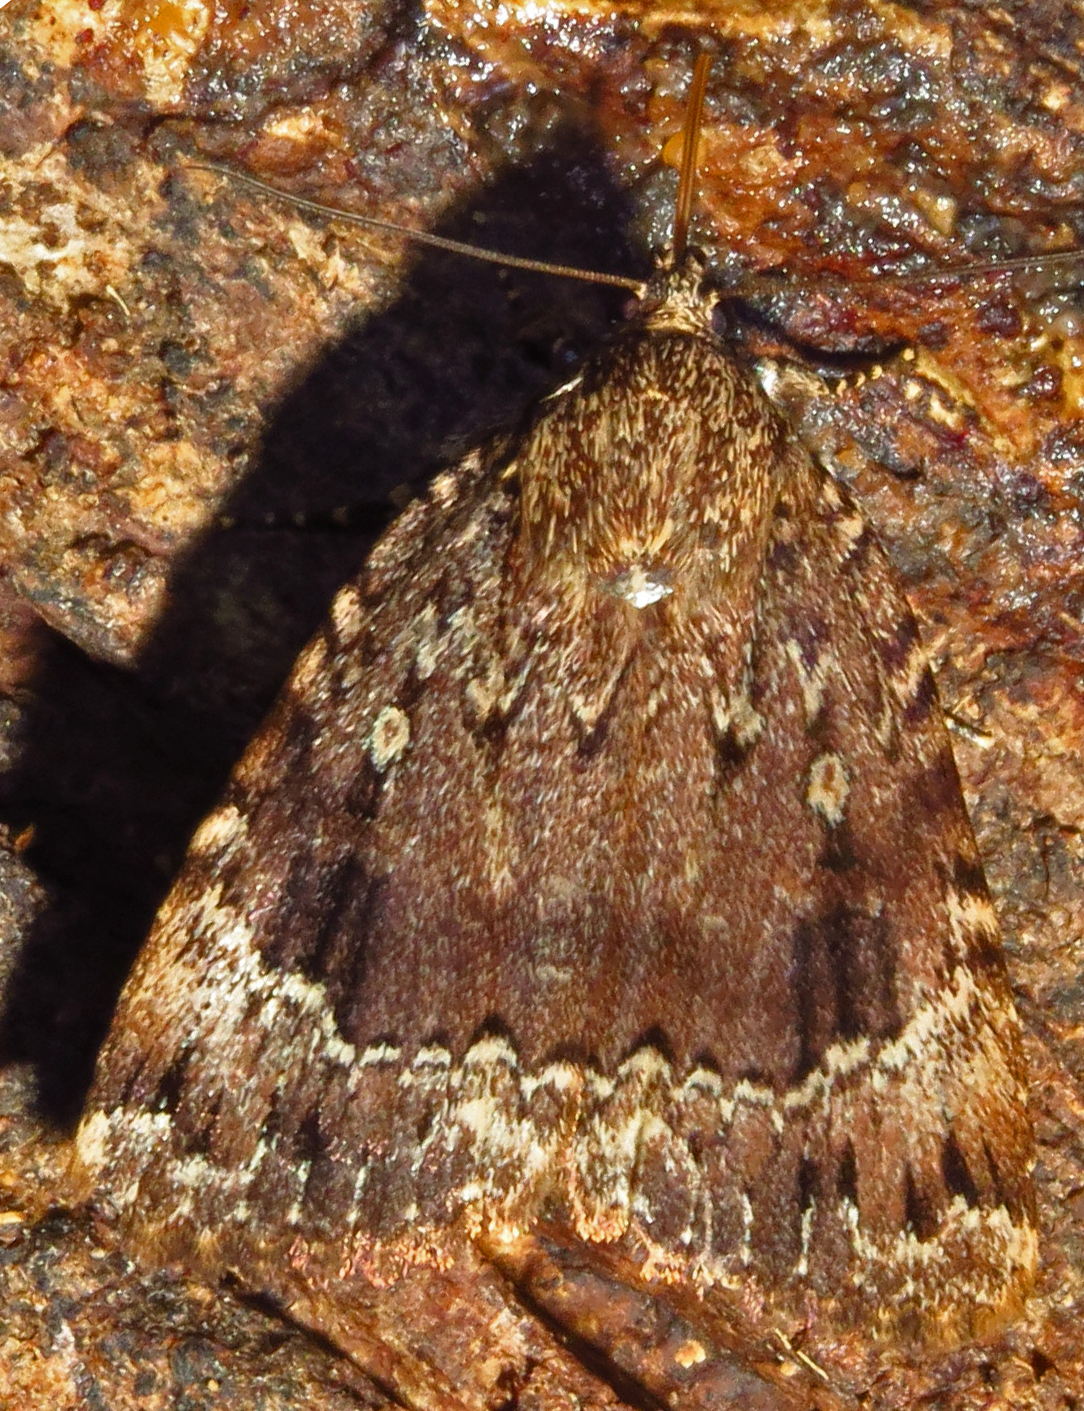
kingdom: Animalia
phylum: Arthropoda
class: Insecta
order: Lepidoptera
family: Noctuidae
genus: Amphipyra
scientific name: Amphipyra pyramidoides
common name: American copper underwing
